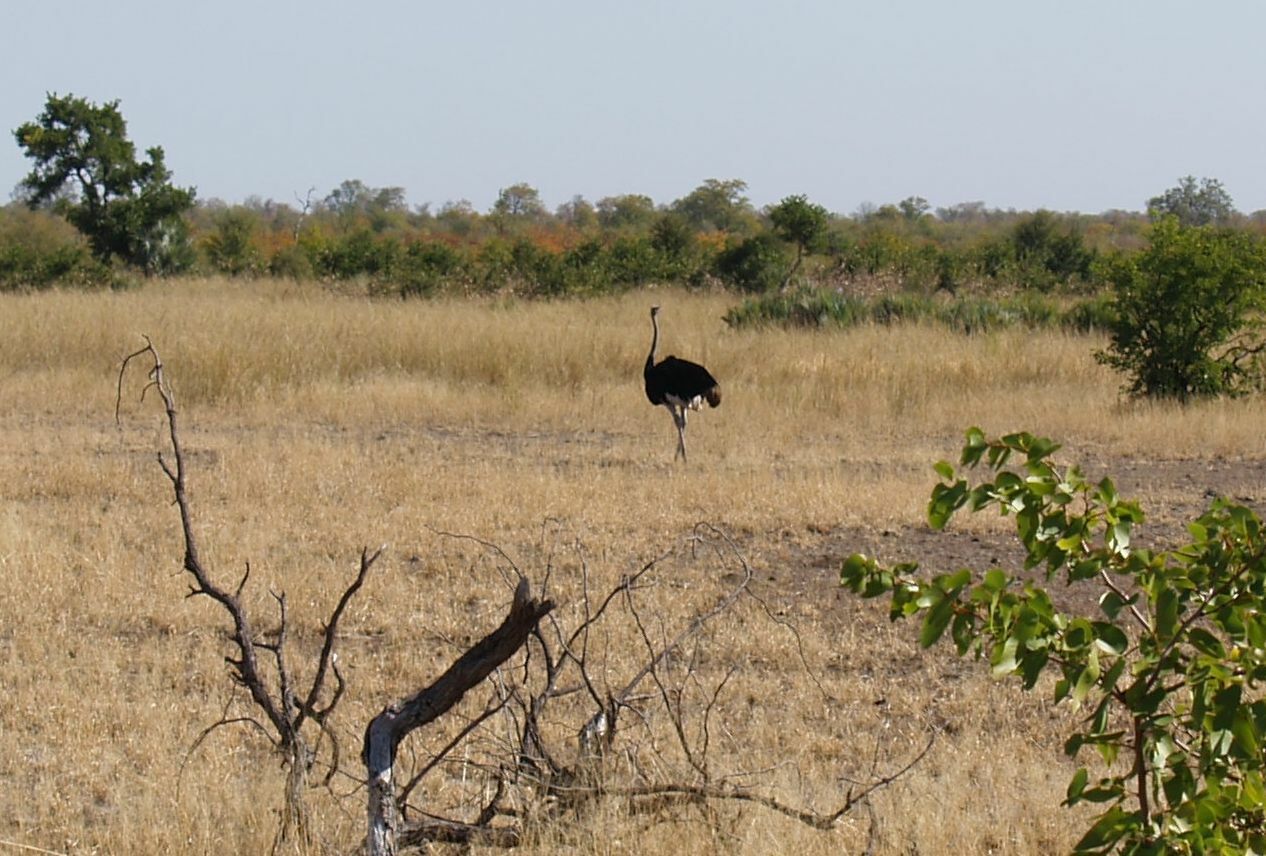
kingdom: Animalia
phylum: Chordata
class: Aves
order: Struthioniformes
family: Struthionidae
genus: Struthio
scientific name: Struthio camelus
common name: Common ostrich
